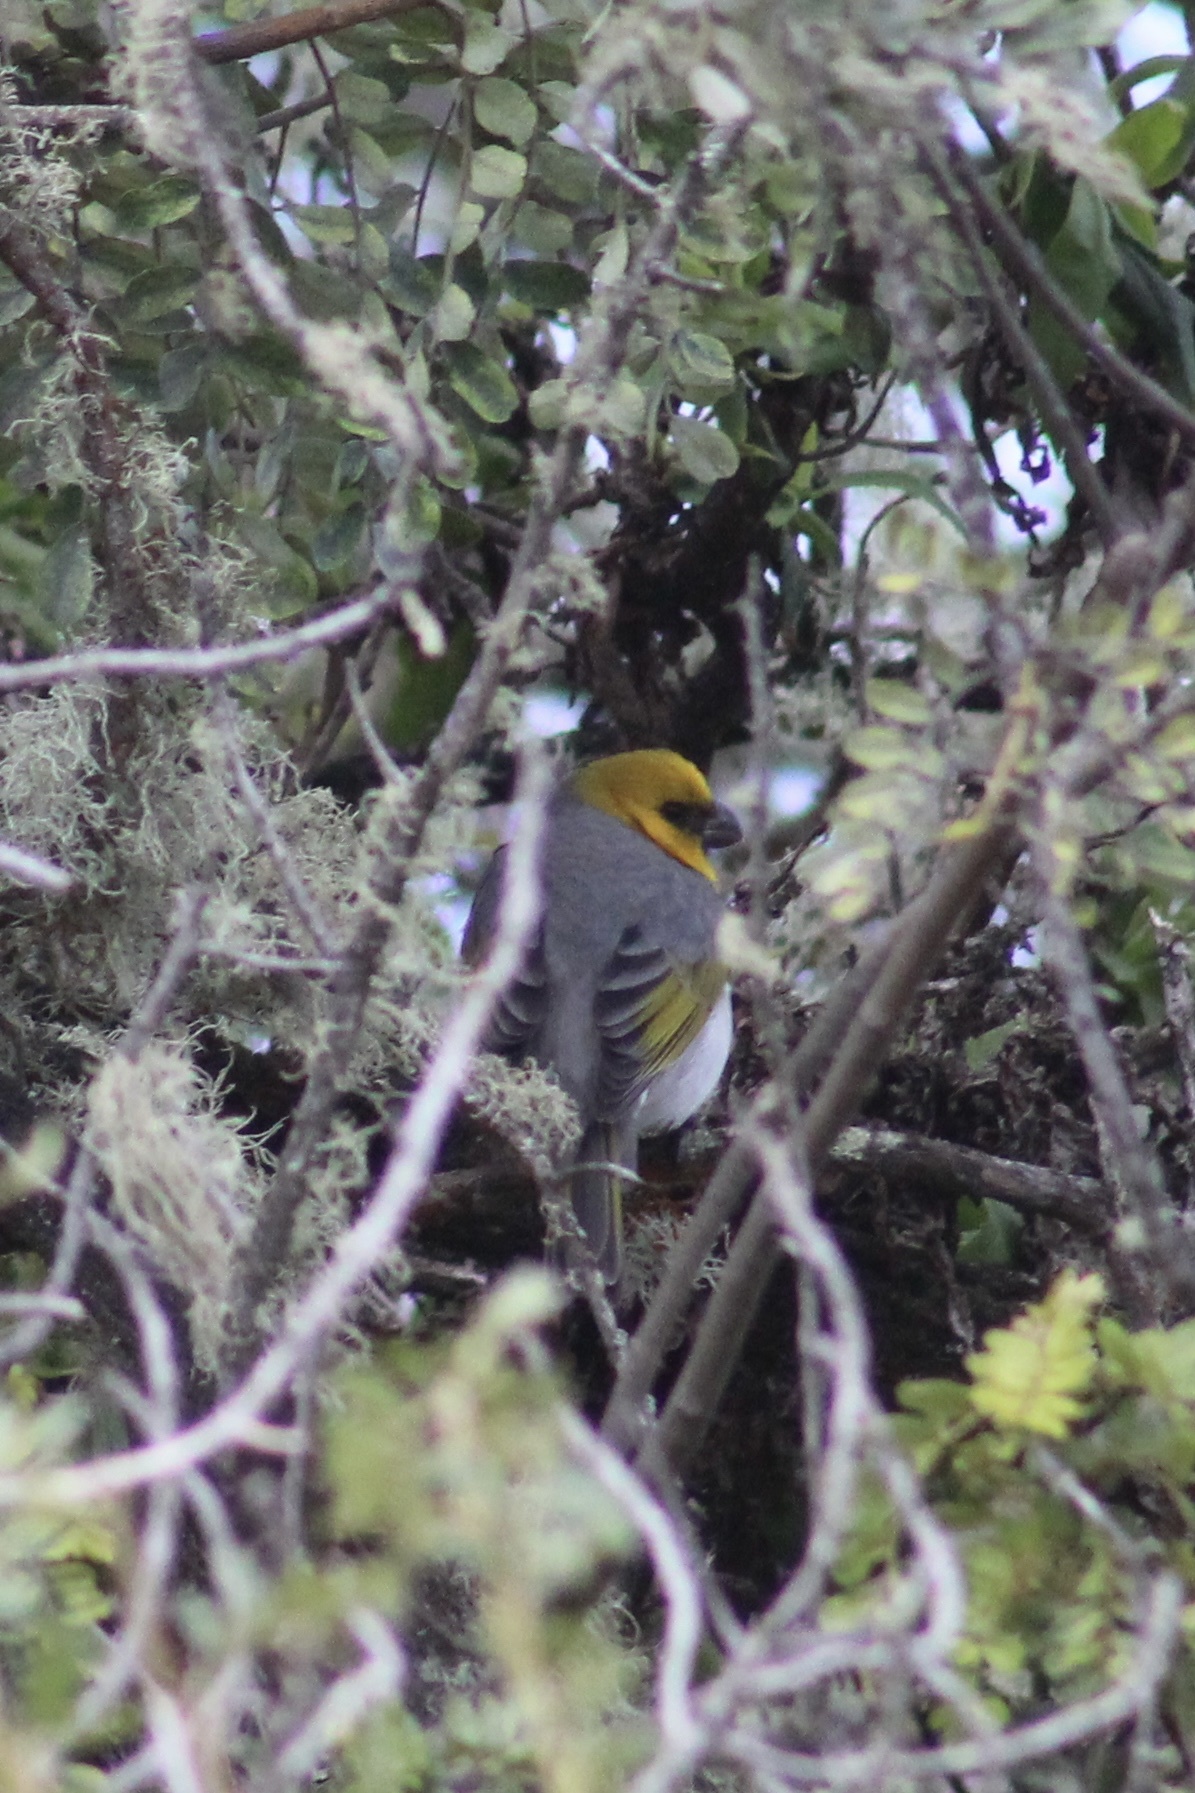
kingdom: Animalia
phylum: Chordata
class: Aves
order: Passeriformes
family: Fringillidae
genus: Loxioides
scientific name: Loxioides bailleui
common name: Palila
